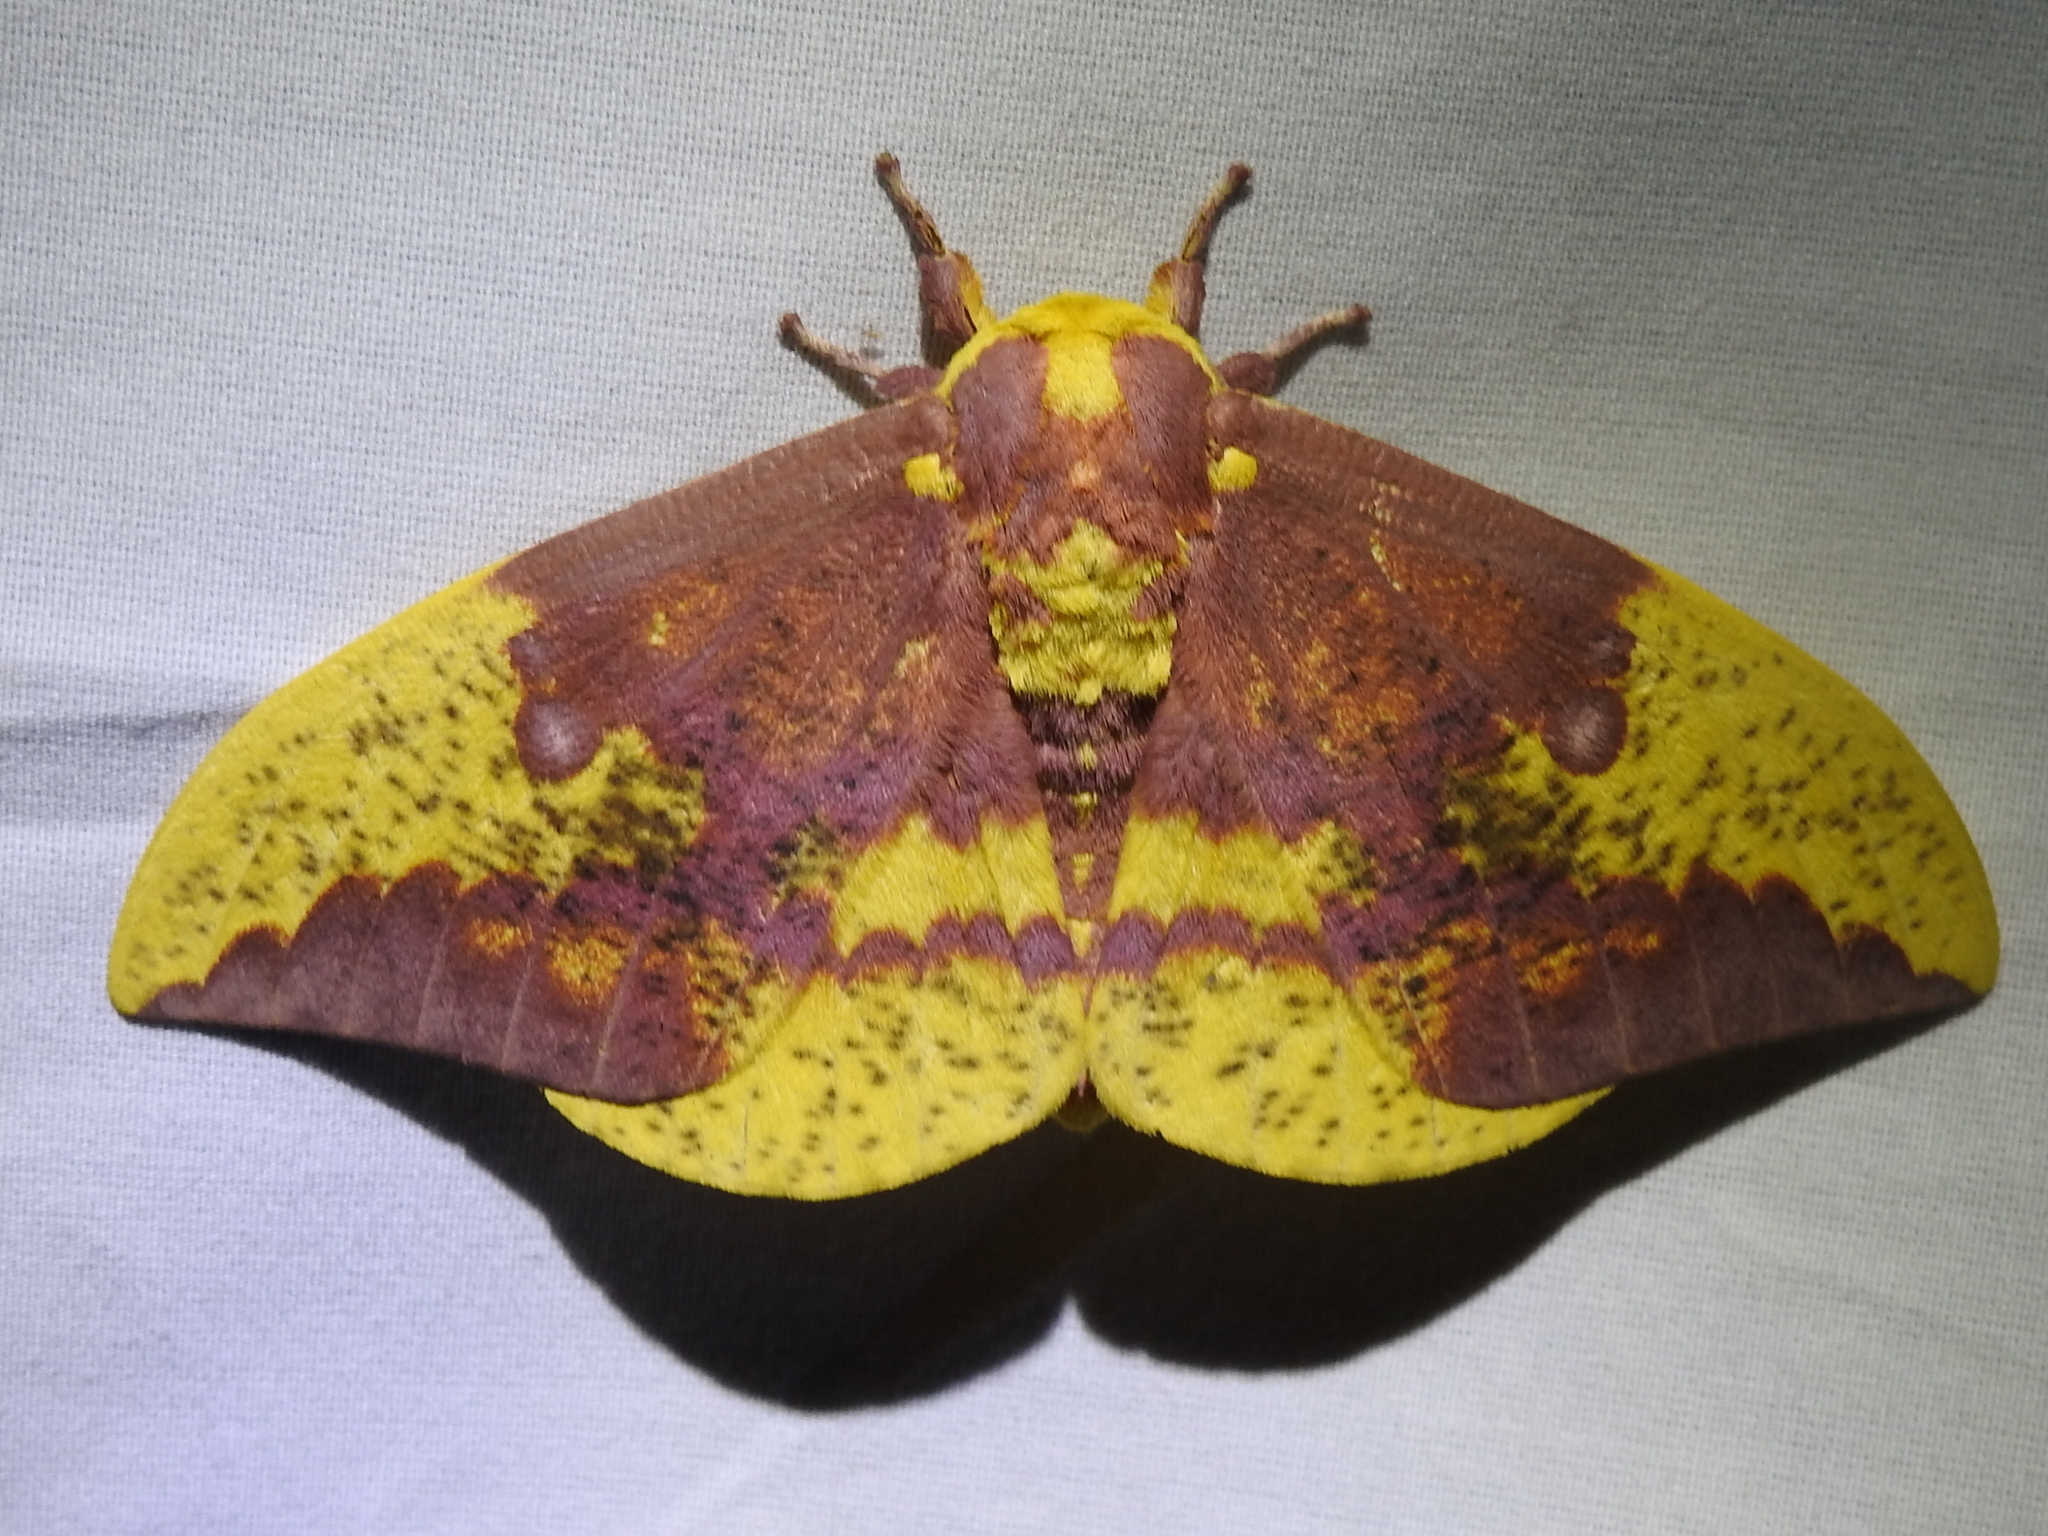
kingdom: Animalia
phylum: Arthropoda
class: Insecta
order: Lepidoptera
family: Saturniidae
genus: Eacles
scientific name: Eacles imperialis
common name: Imperial moth
